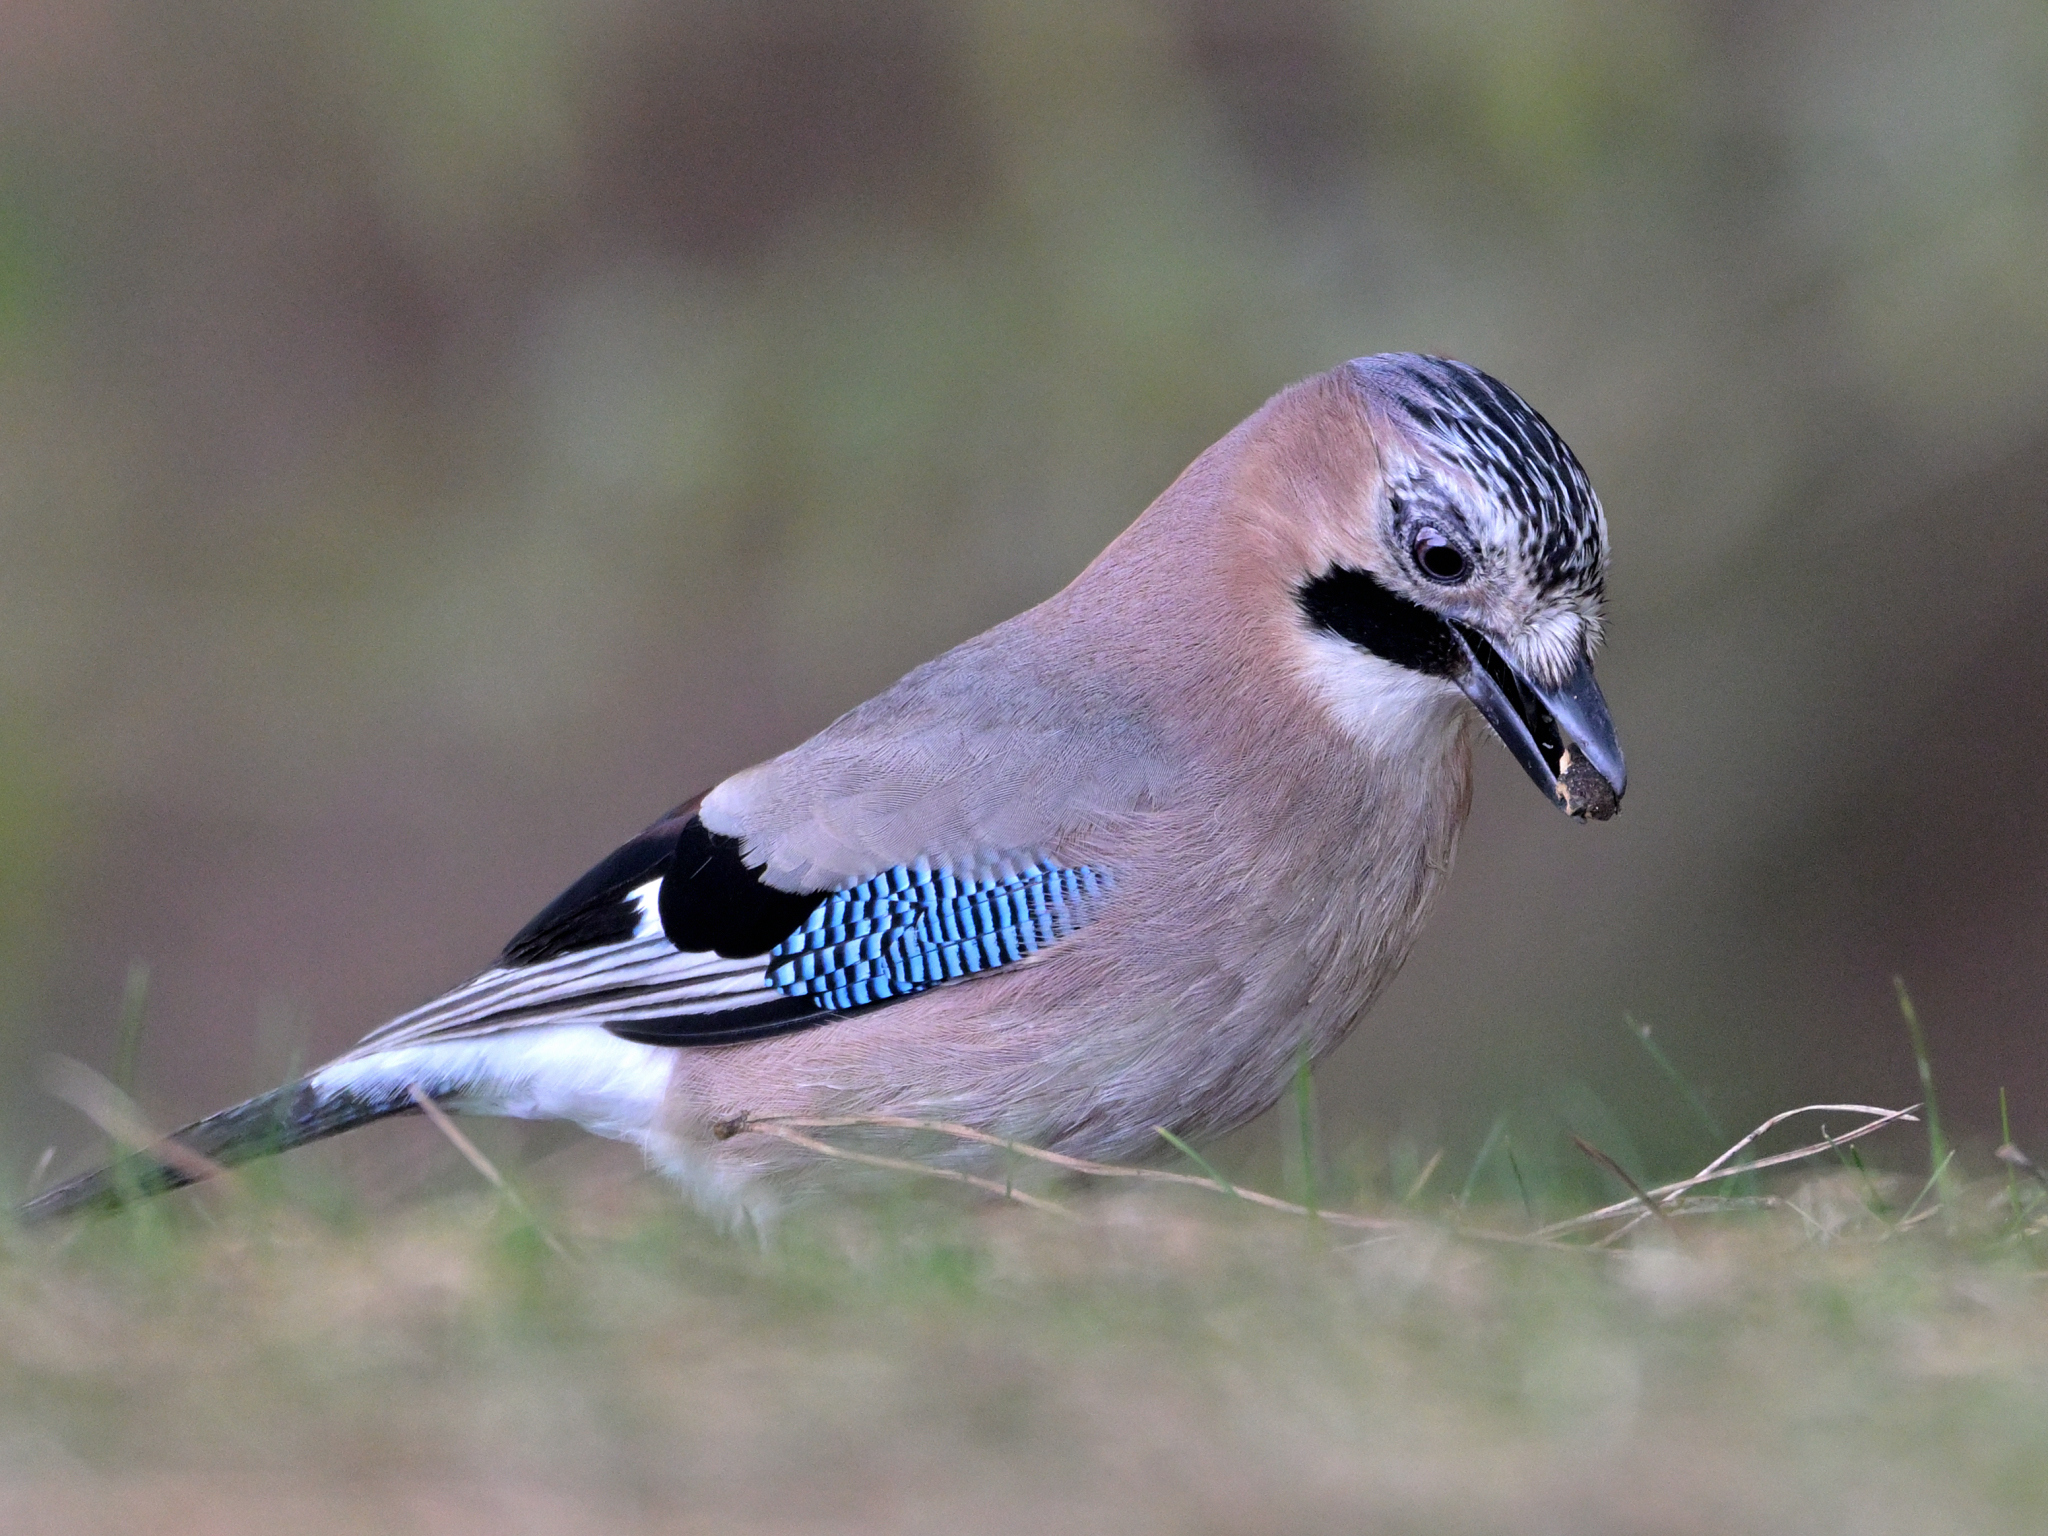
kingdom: Animalia
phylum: Chordata
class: Aves
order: Passeriformes
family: Corvidae
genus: Garrulus
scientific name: Garrulus glandarius
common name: Eurasian jay
